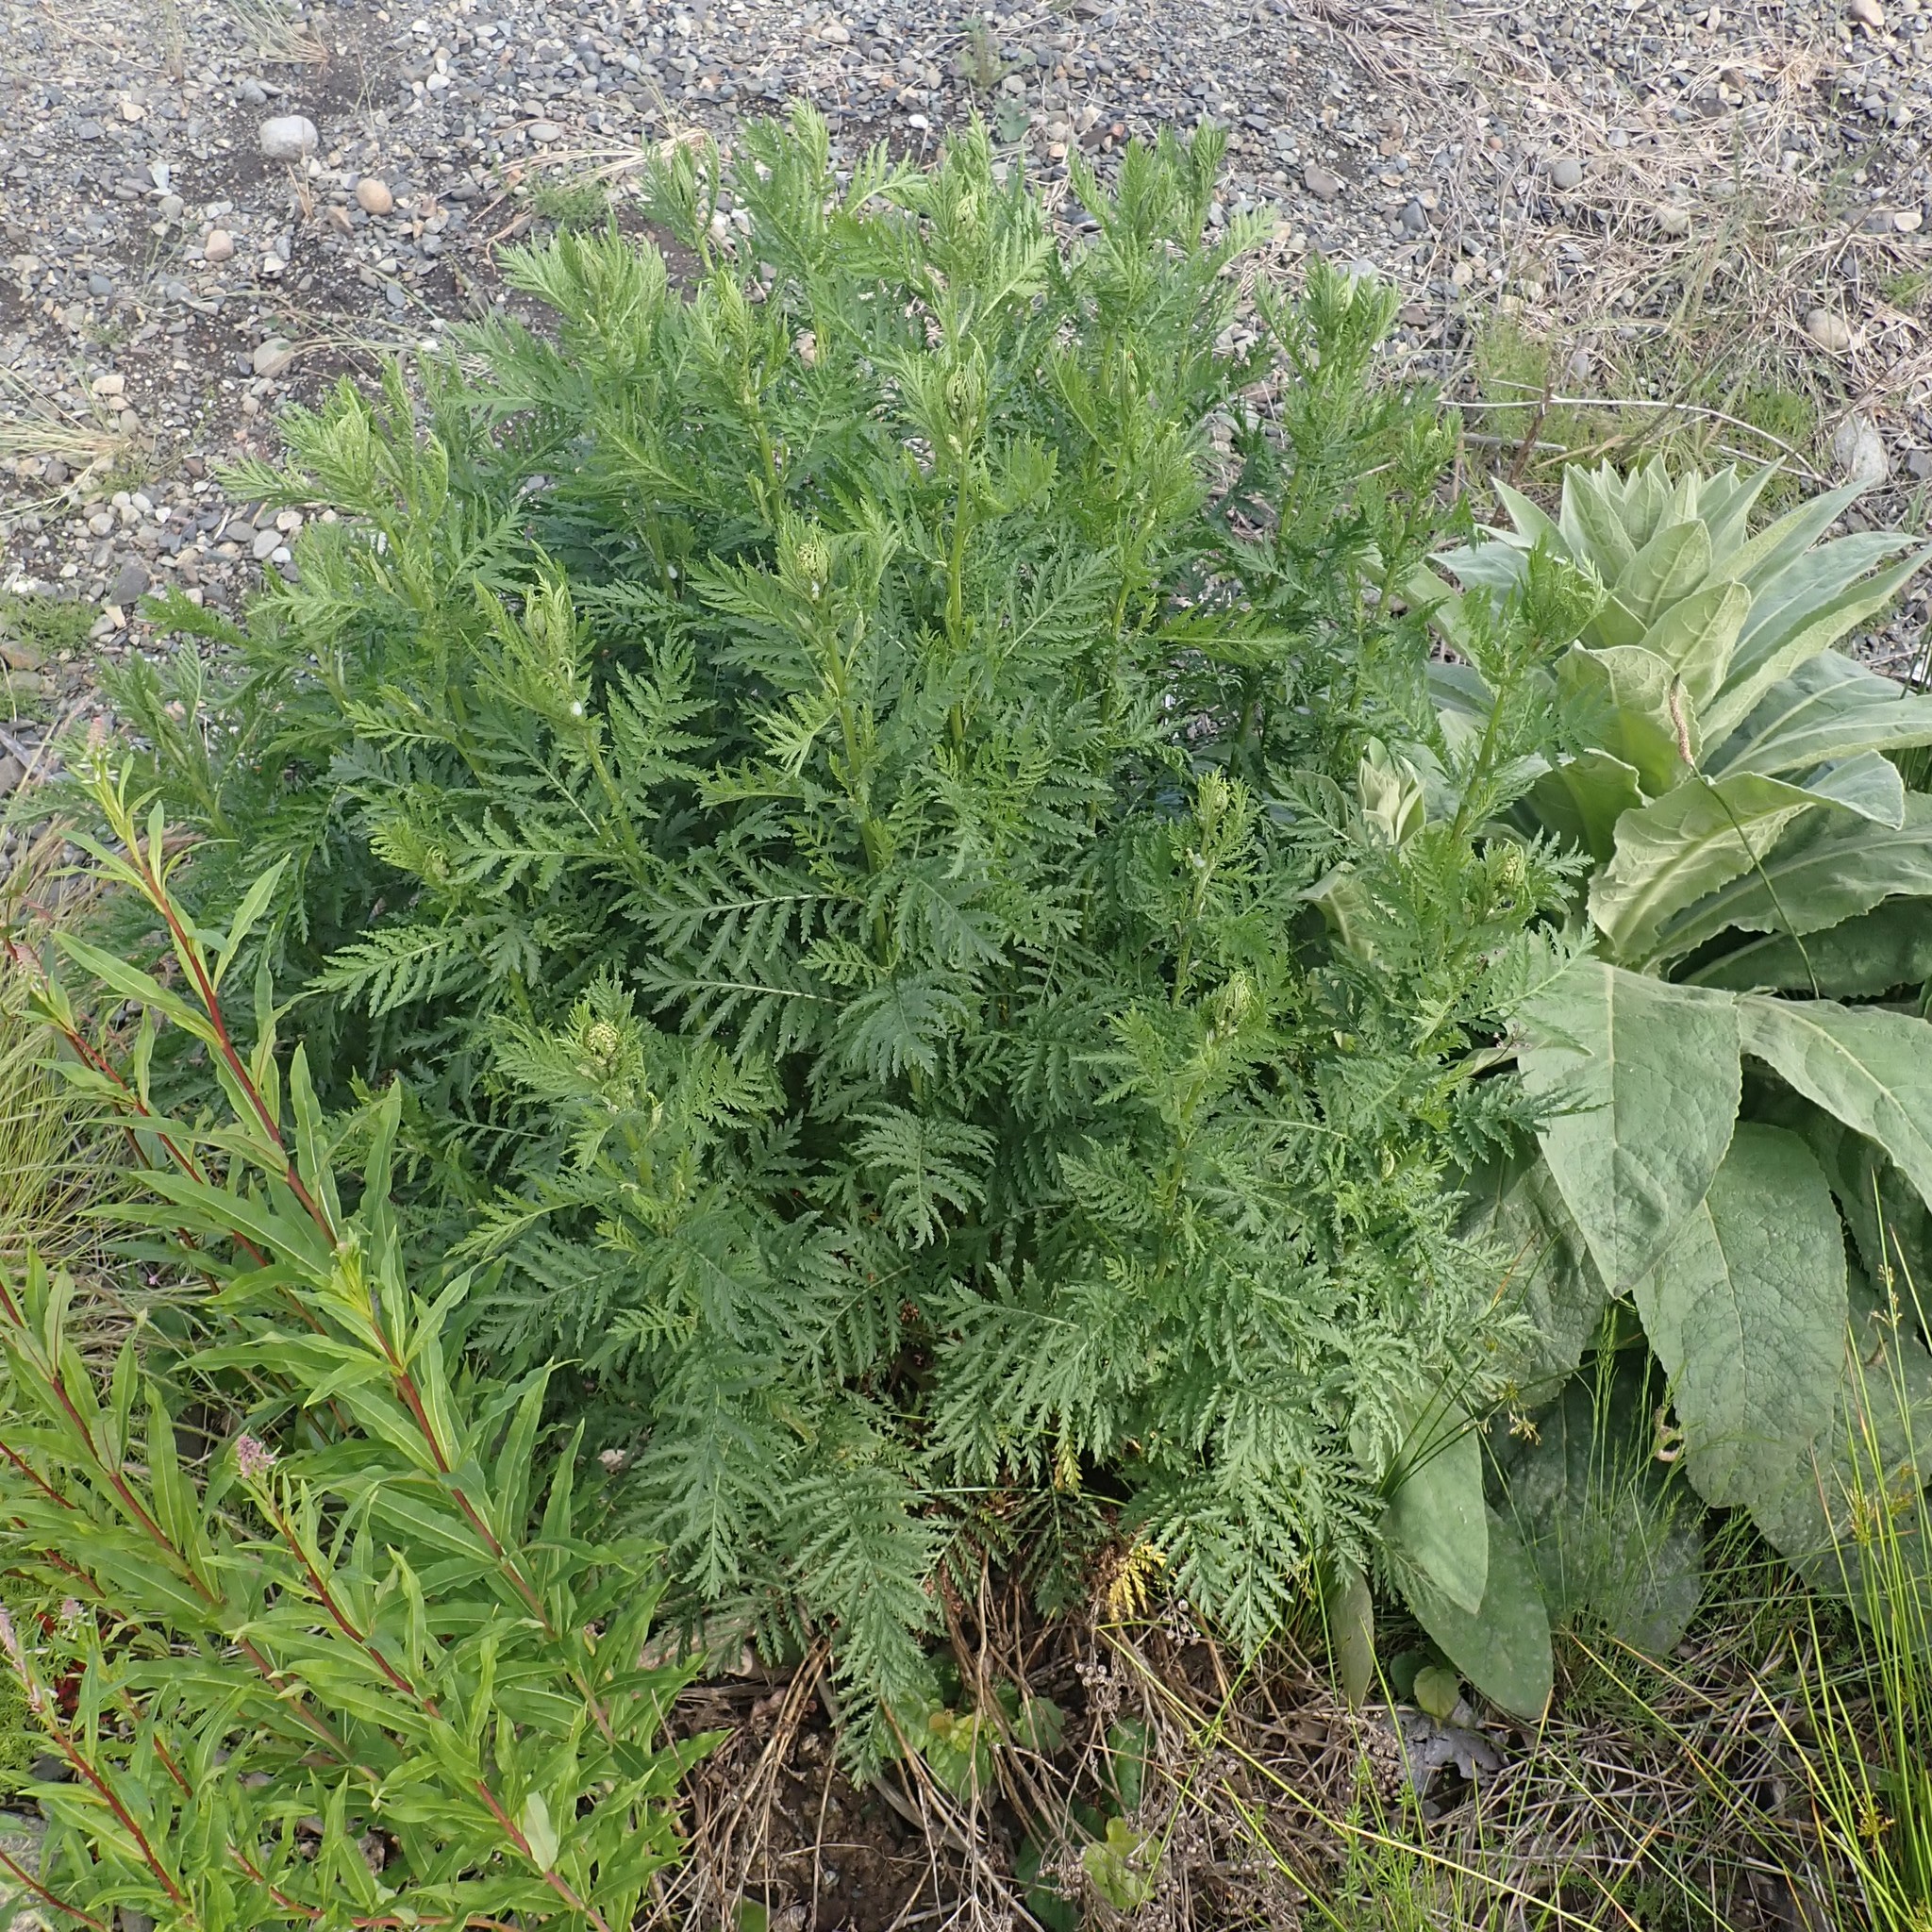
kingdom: Plantae
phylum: Tracheophyta
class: Magnoliopsida
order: Asterales
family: Asteraceae
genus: Tanacetum
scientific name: Tanacetum vulgare
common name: Common tansy
